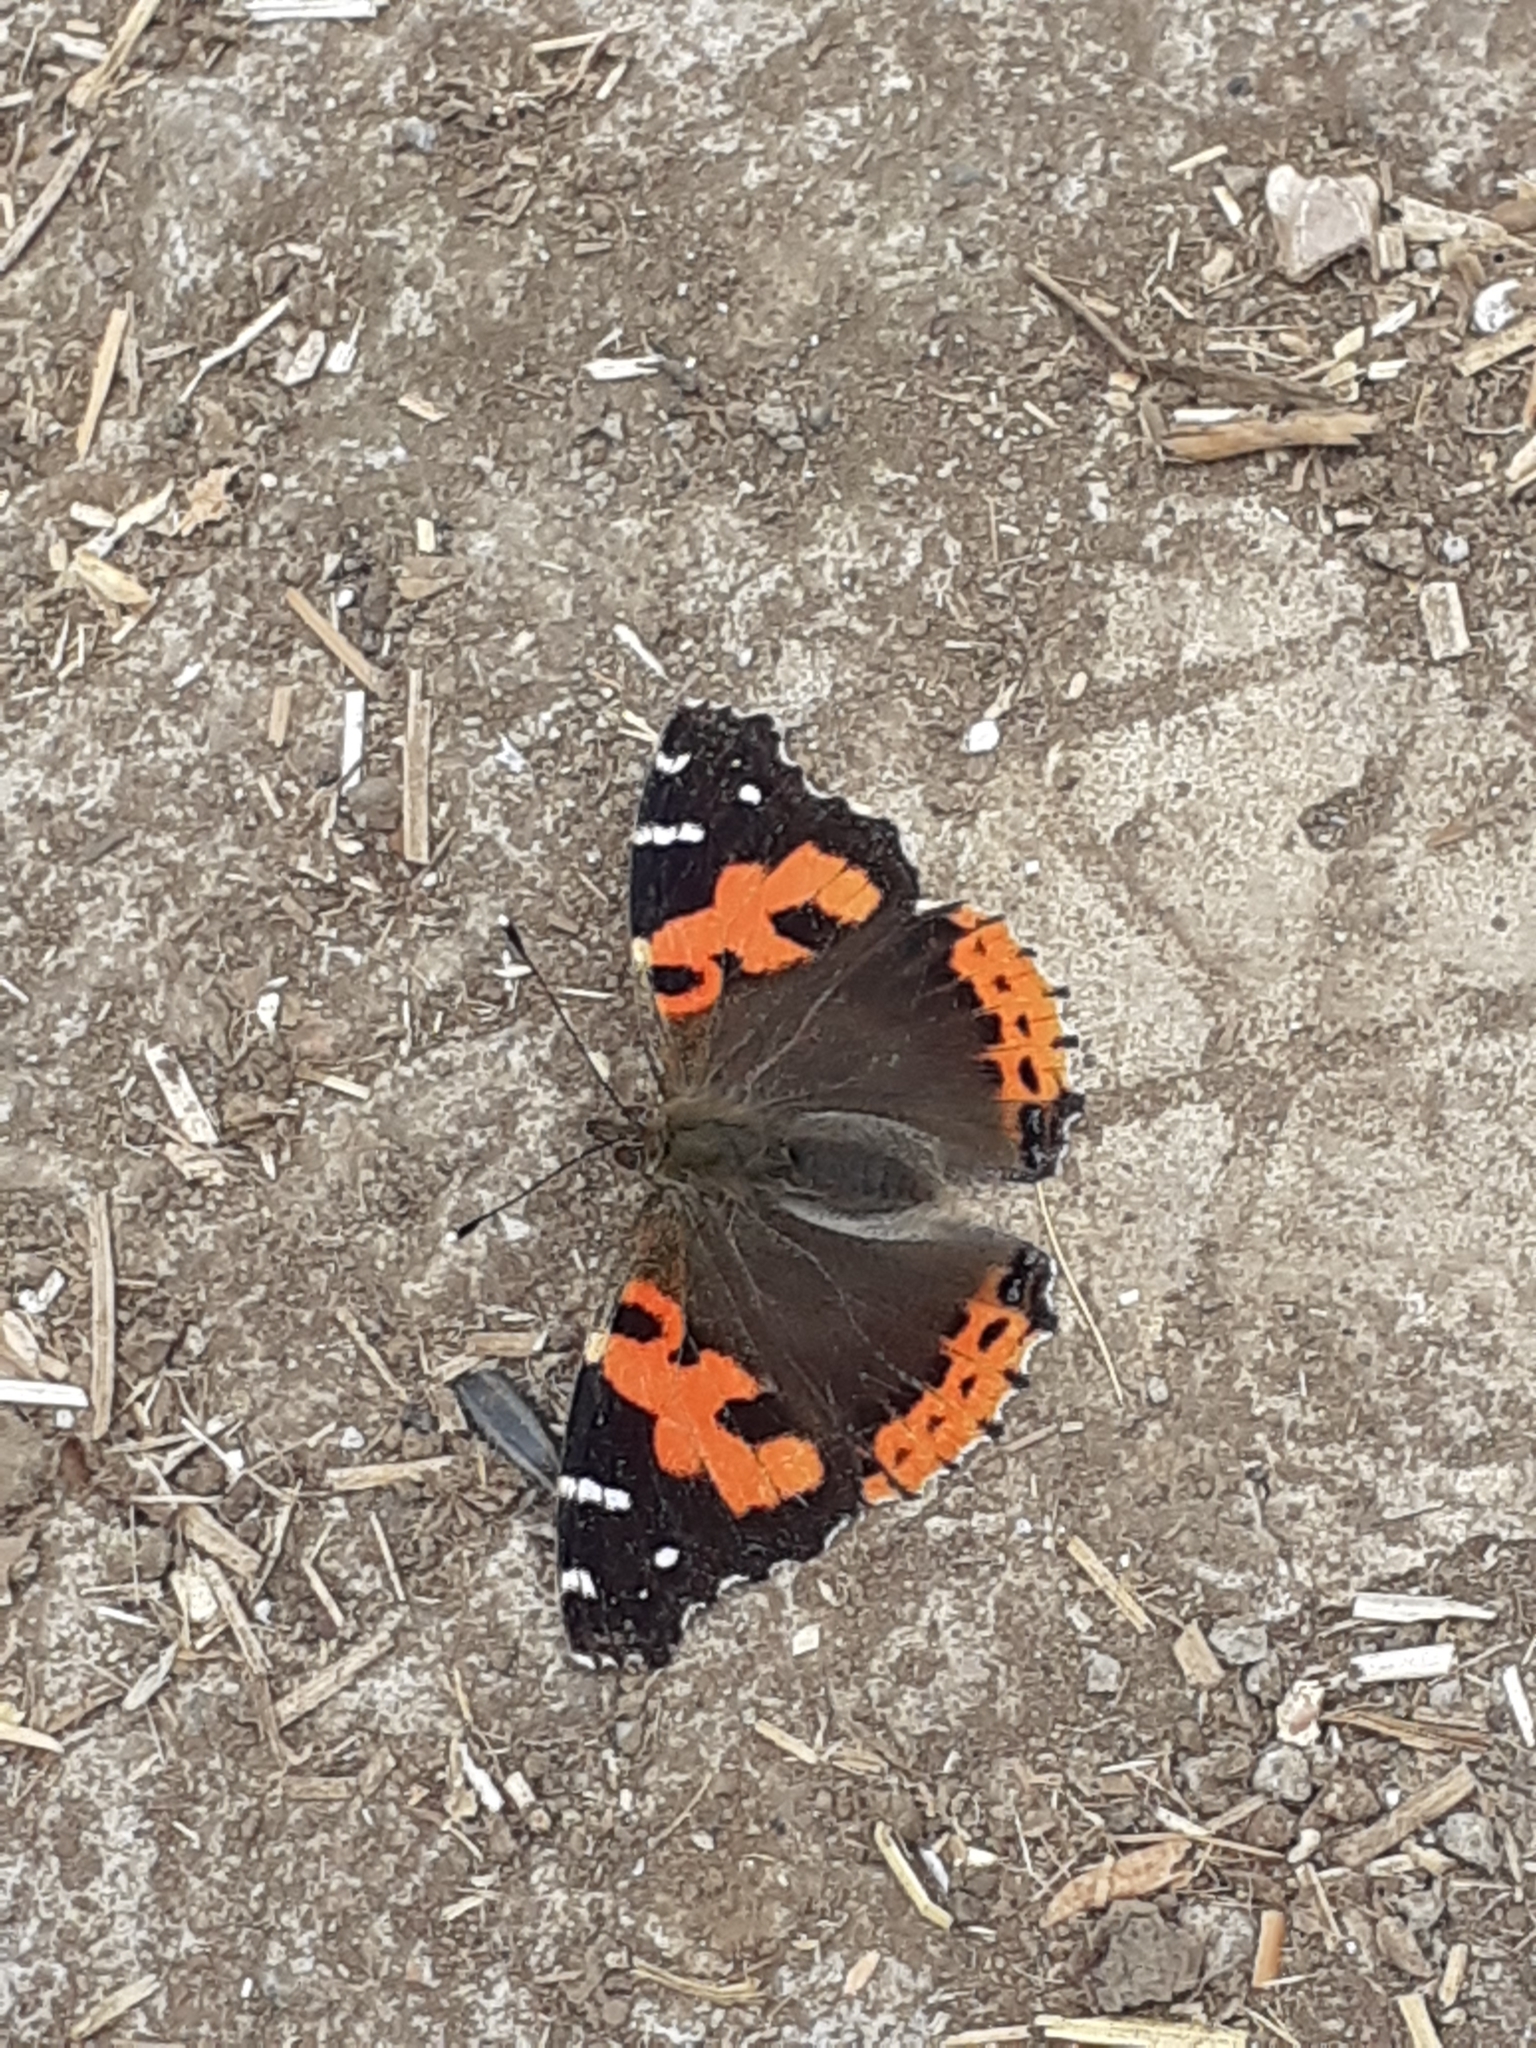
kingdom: Animalia
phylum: Arthropoda
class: Insecta
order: Lepidoptera
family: Nymphalidae
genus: Vanessa
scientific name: Vanessa vulcania
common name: Canary red admiral
